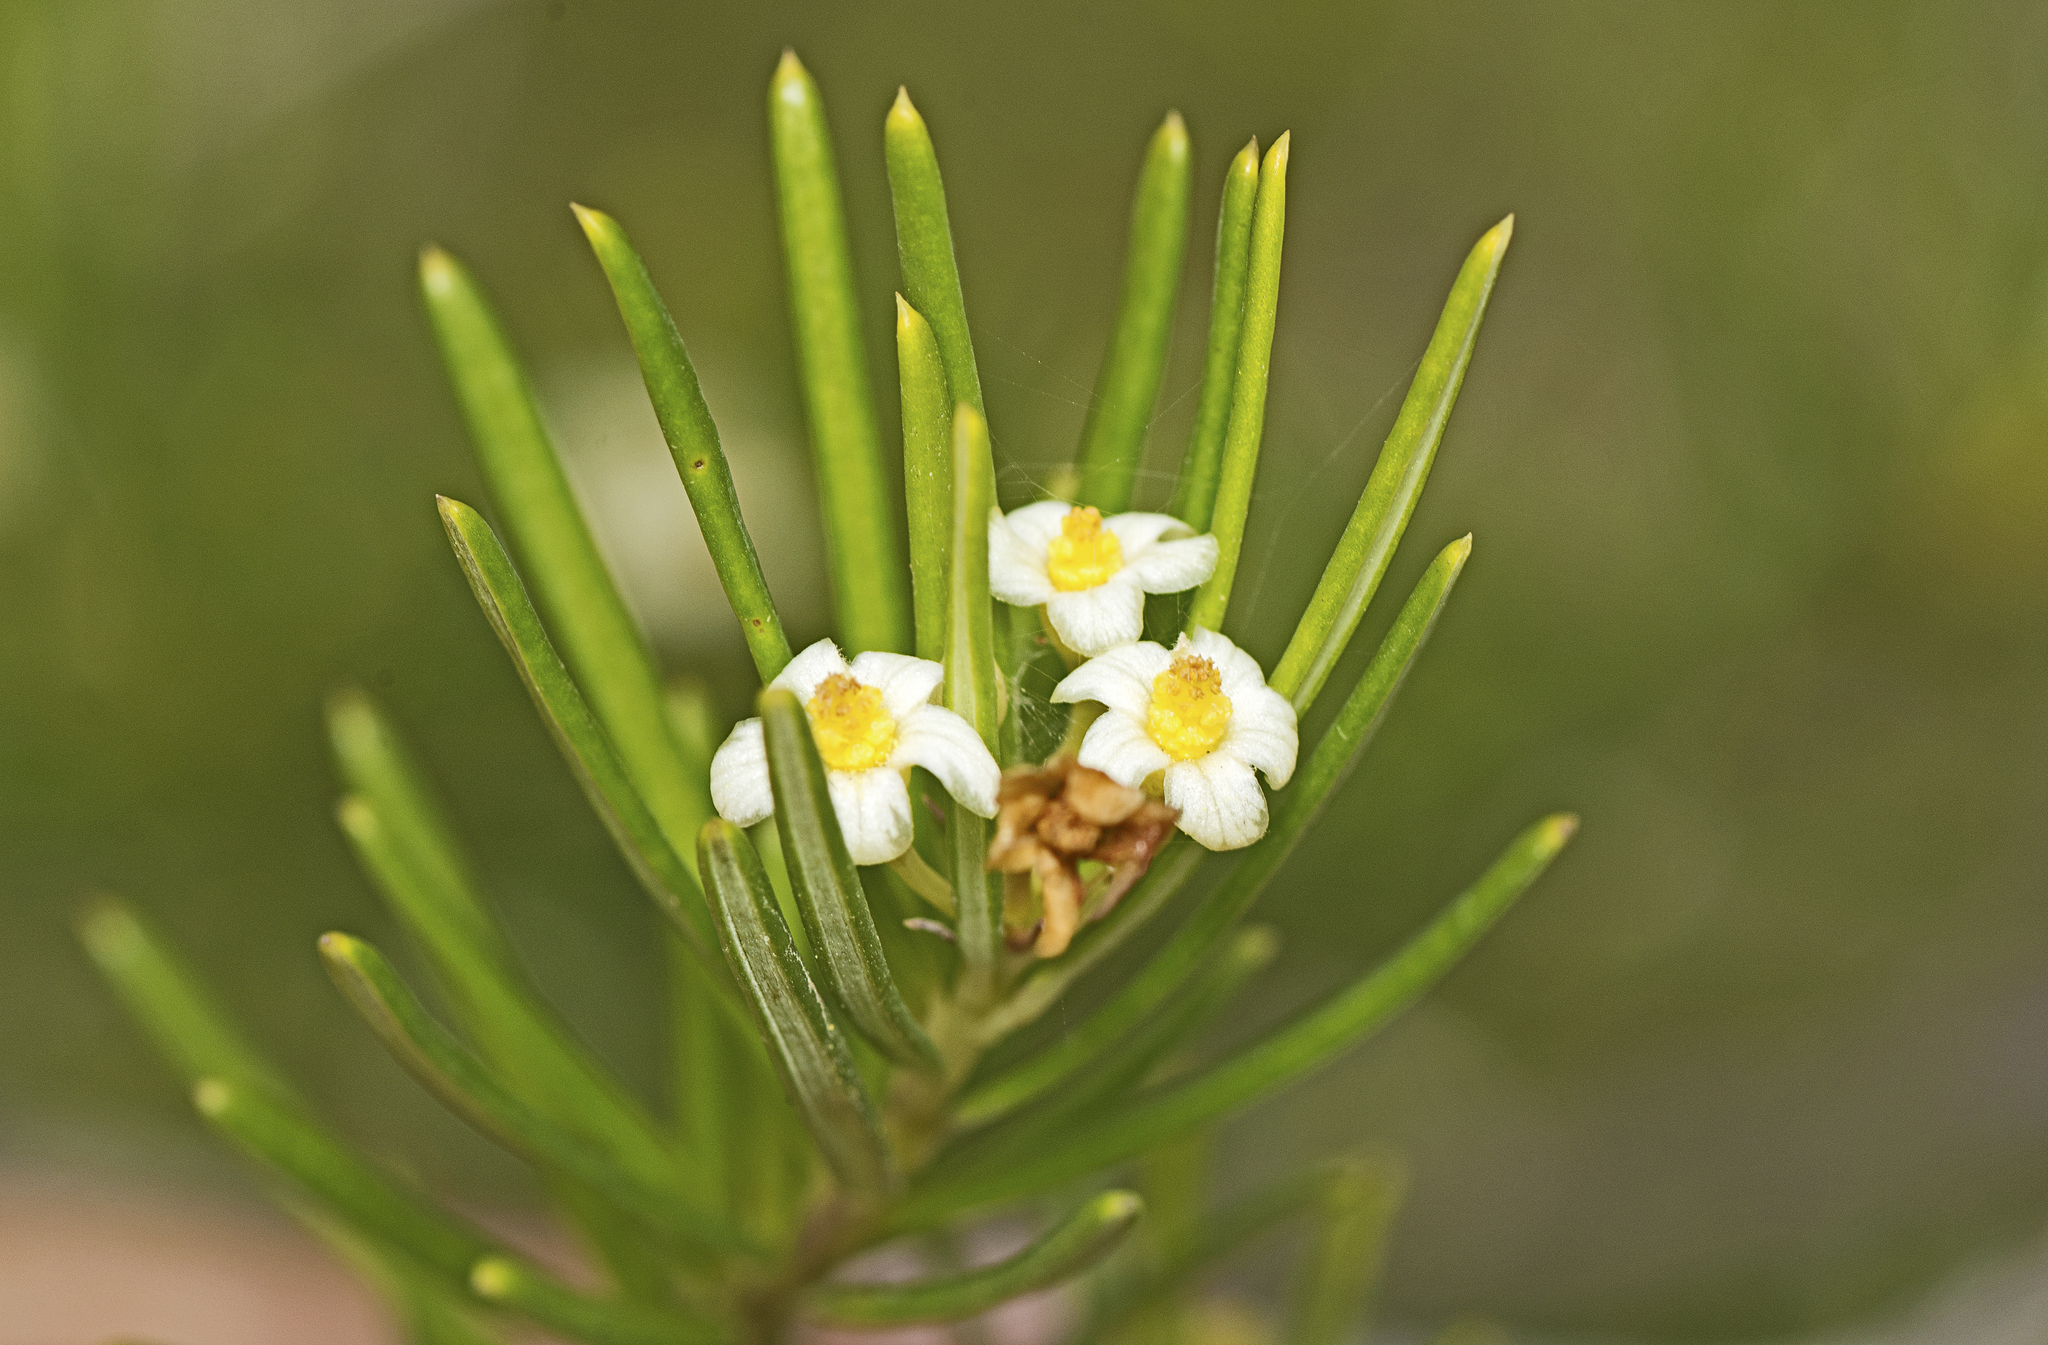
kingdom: Plantae
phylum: Tracheophyta
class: Magnoliopsida
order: Malpighiales
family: Euphorbiaceae
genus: Ricinocarpos
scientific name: Ricinocarpos pinifolius
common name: Weddingbush
